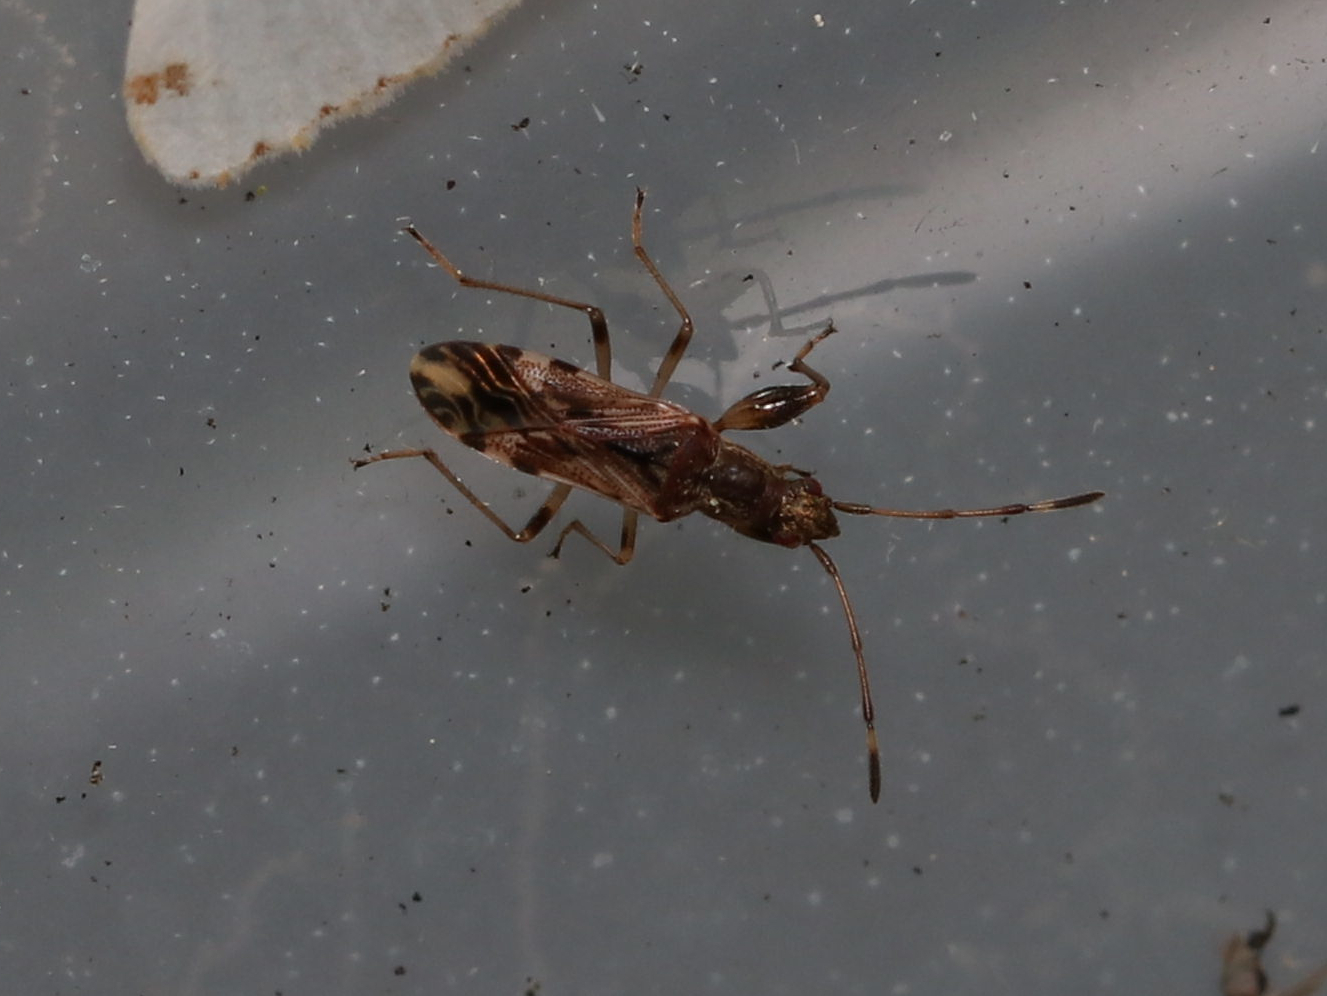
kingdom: Animalia
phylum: Arthropoda
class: Insecta
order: Hemiptera
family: Rhyparochromidae
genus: Neopamera
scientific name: Neopamera albocincta
